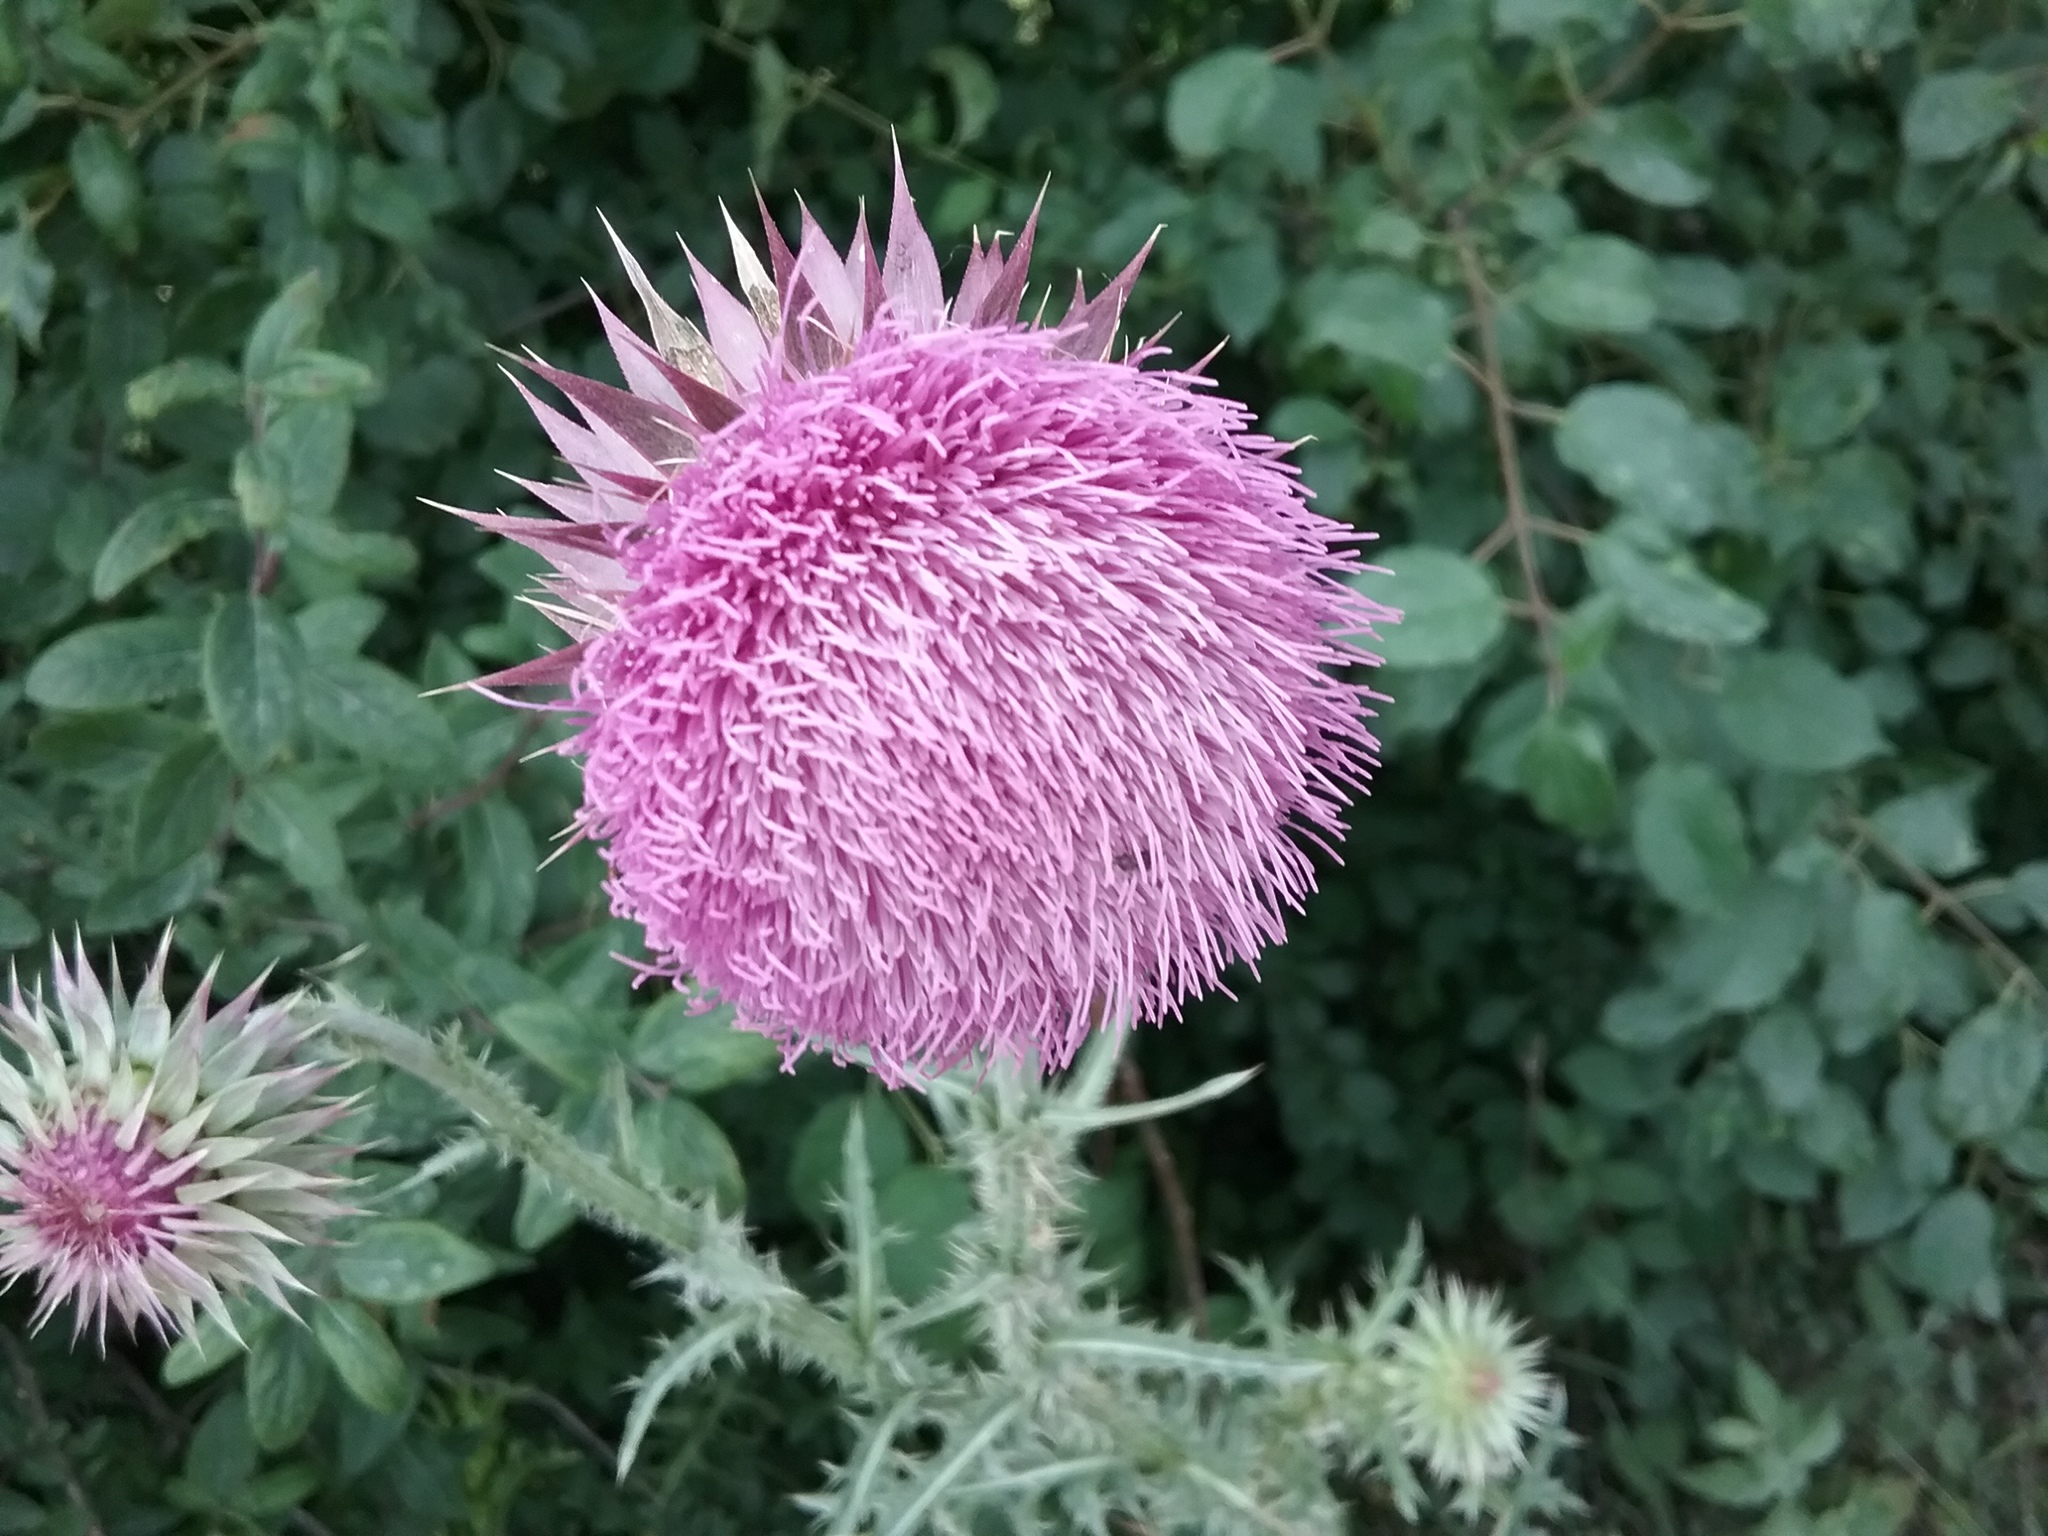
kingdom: Plantae
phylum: Tracheophyta
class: Magnoliopsida
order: Asterales
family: Asteraceae
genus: Carduus
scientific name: Carduus nutans
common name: Musk thistle
